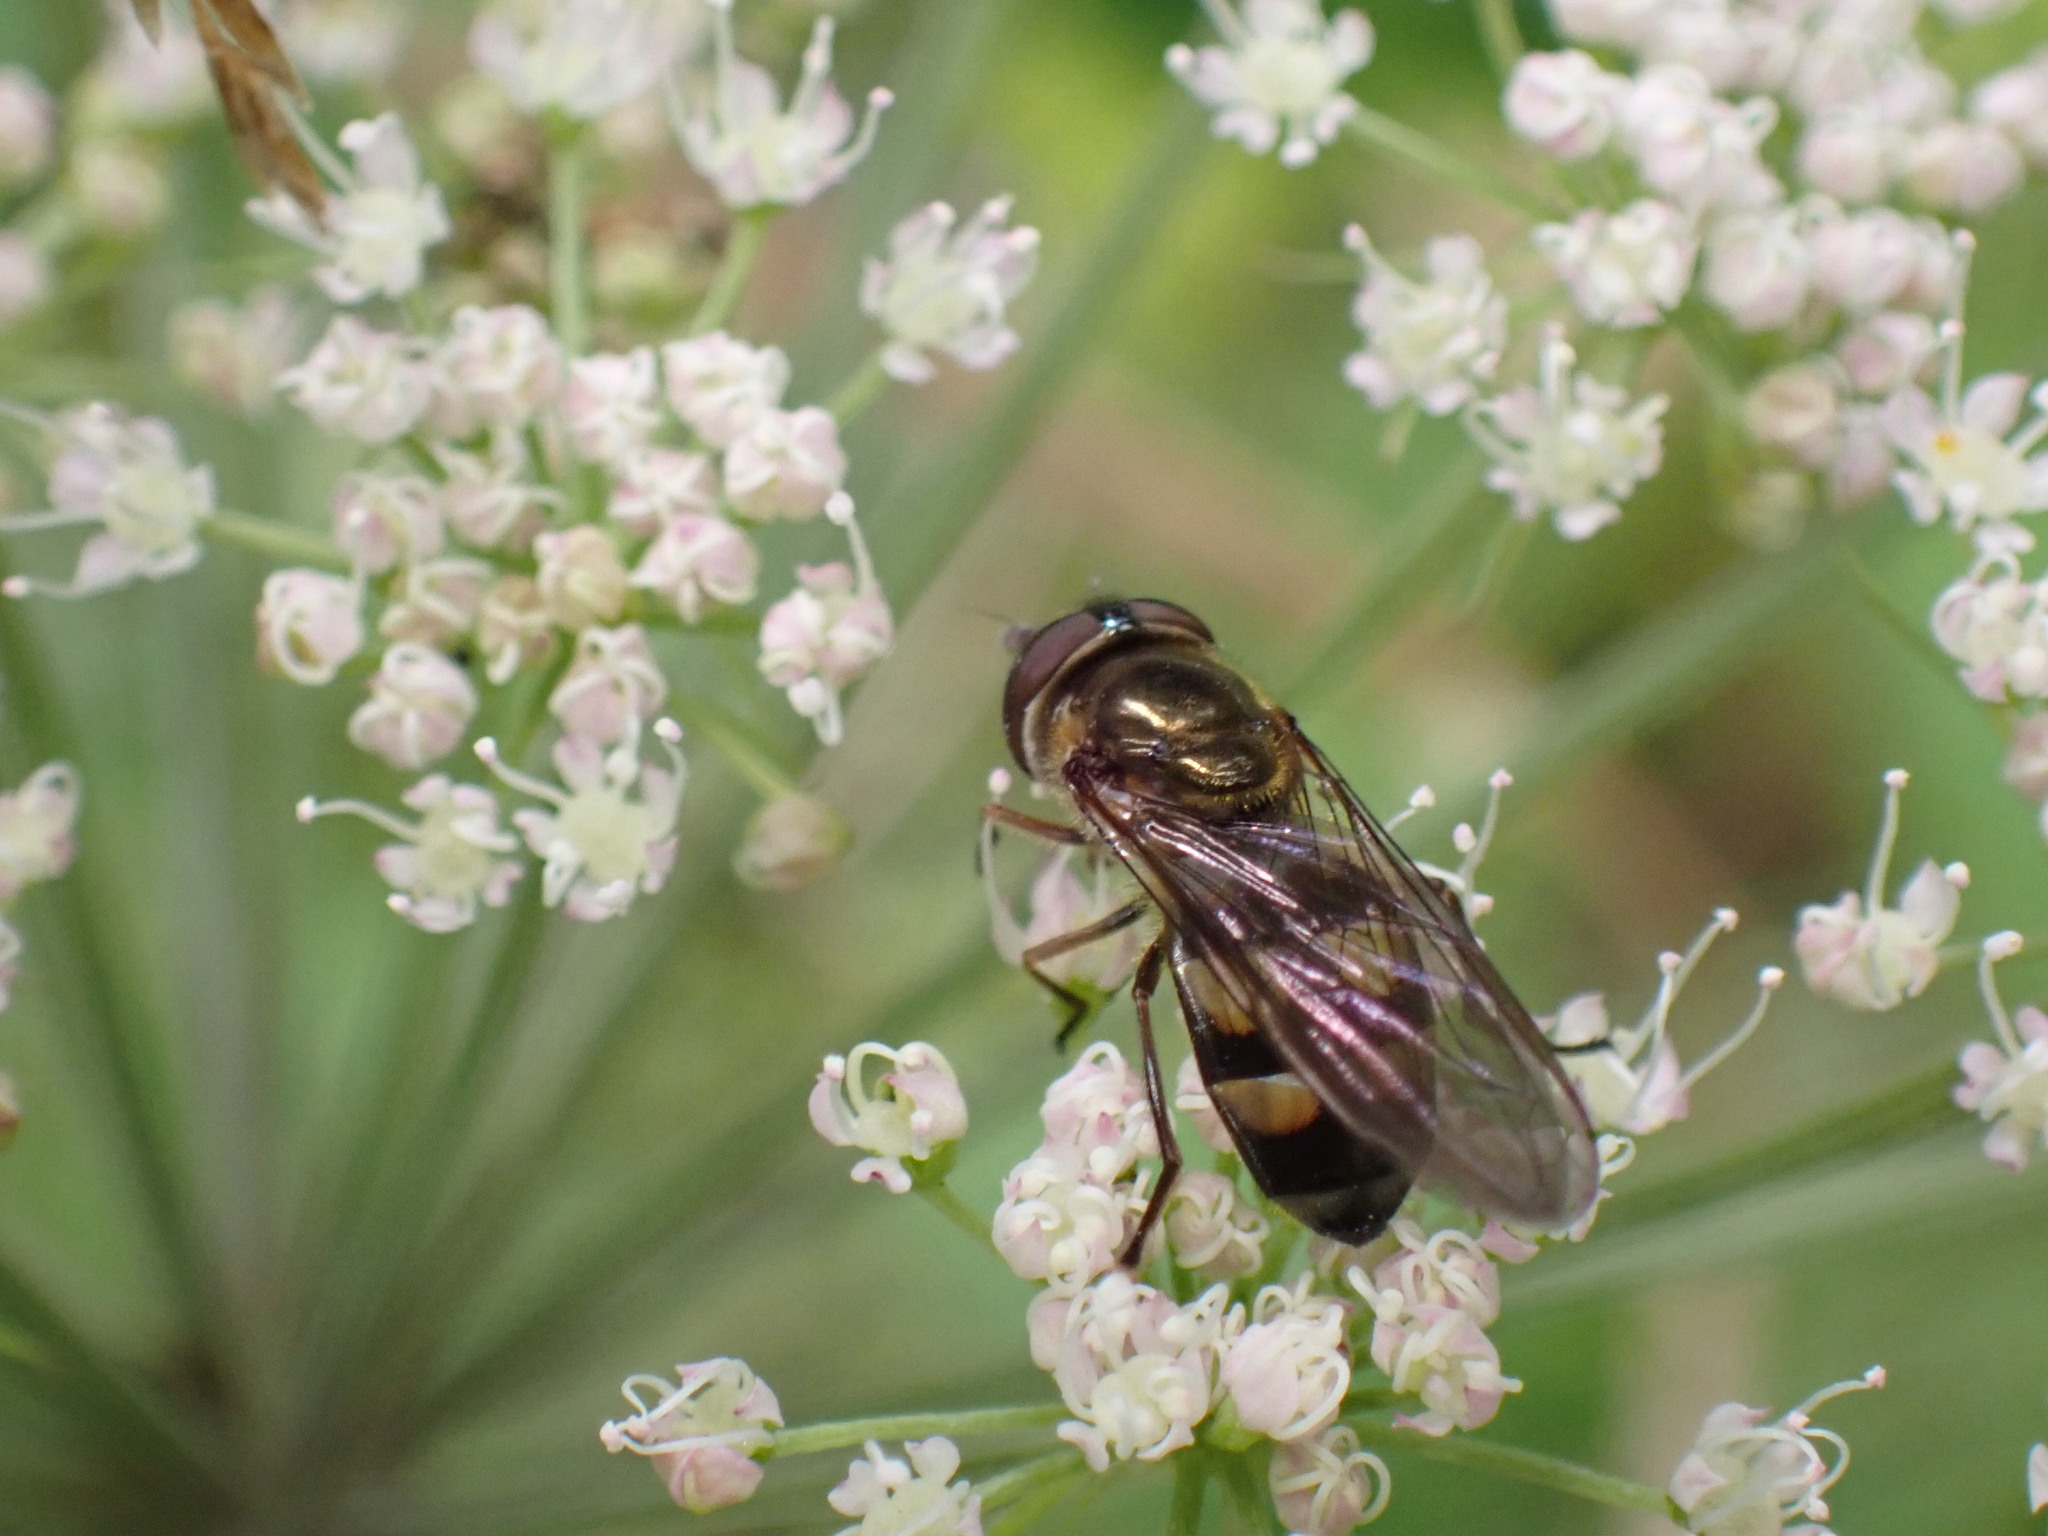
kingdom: Animalia
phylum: Arthropoda
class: Insecta
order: Diptera
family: Syrphidae
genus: Xanthandrus
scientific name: Xanthandrus comtus
